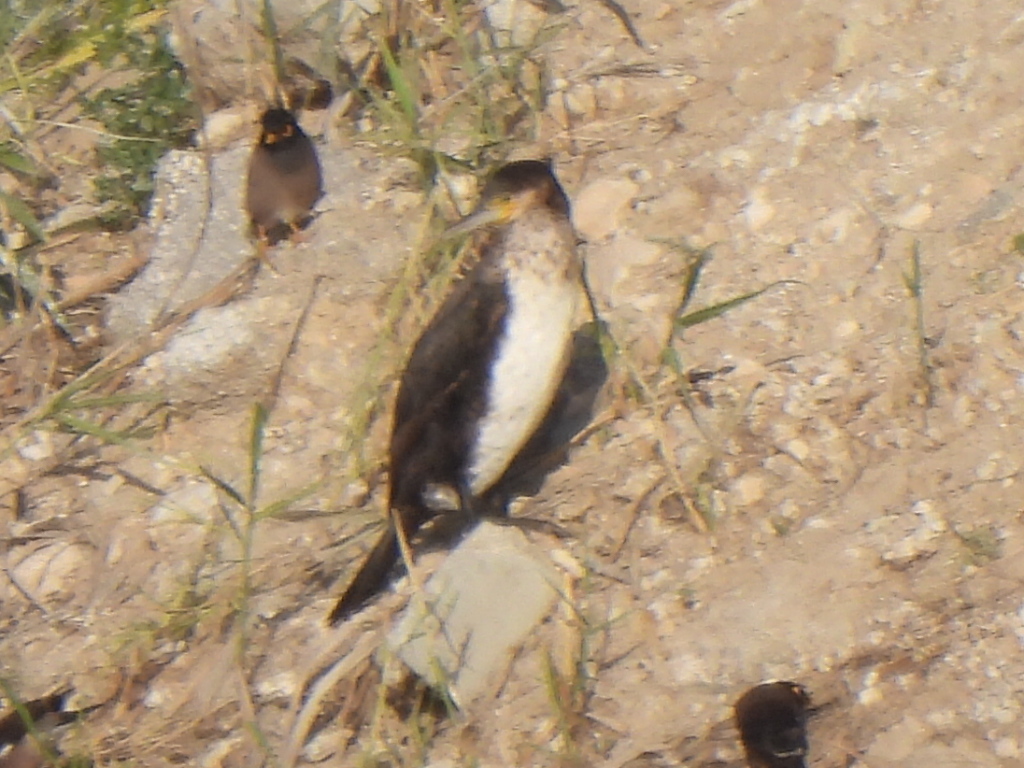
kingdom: Animalia
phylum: Chordata
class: Aves
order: Suliformes
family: Phalacrocoracidae
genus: Phalacrocorax
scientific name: Phalacrocorax carbo
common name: Great cormorant
